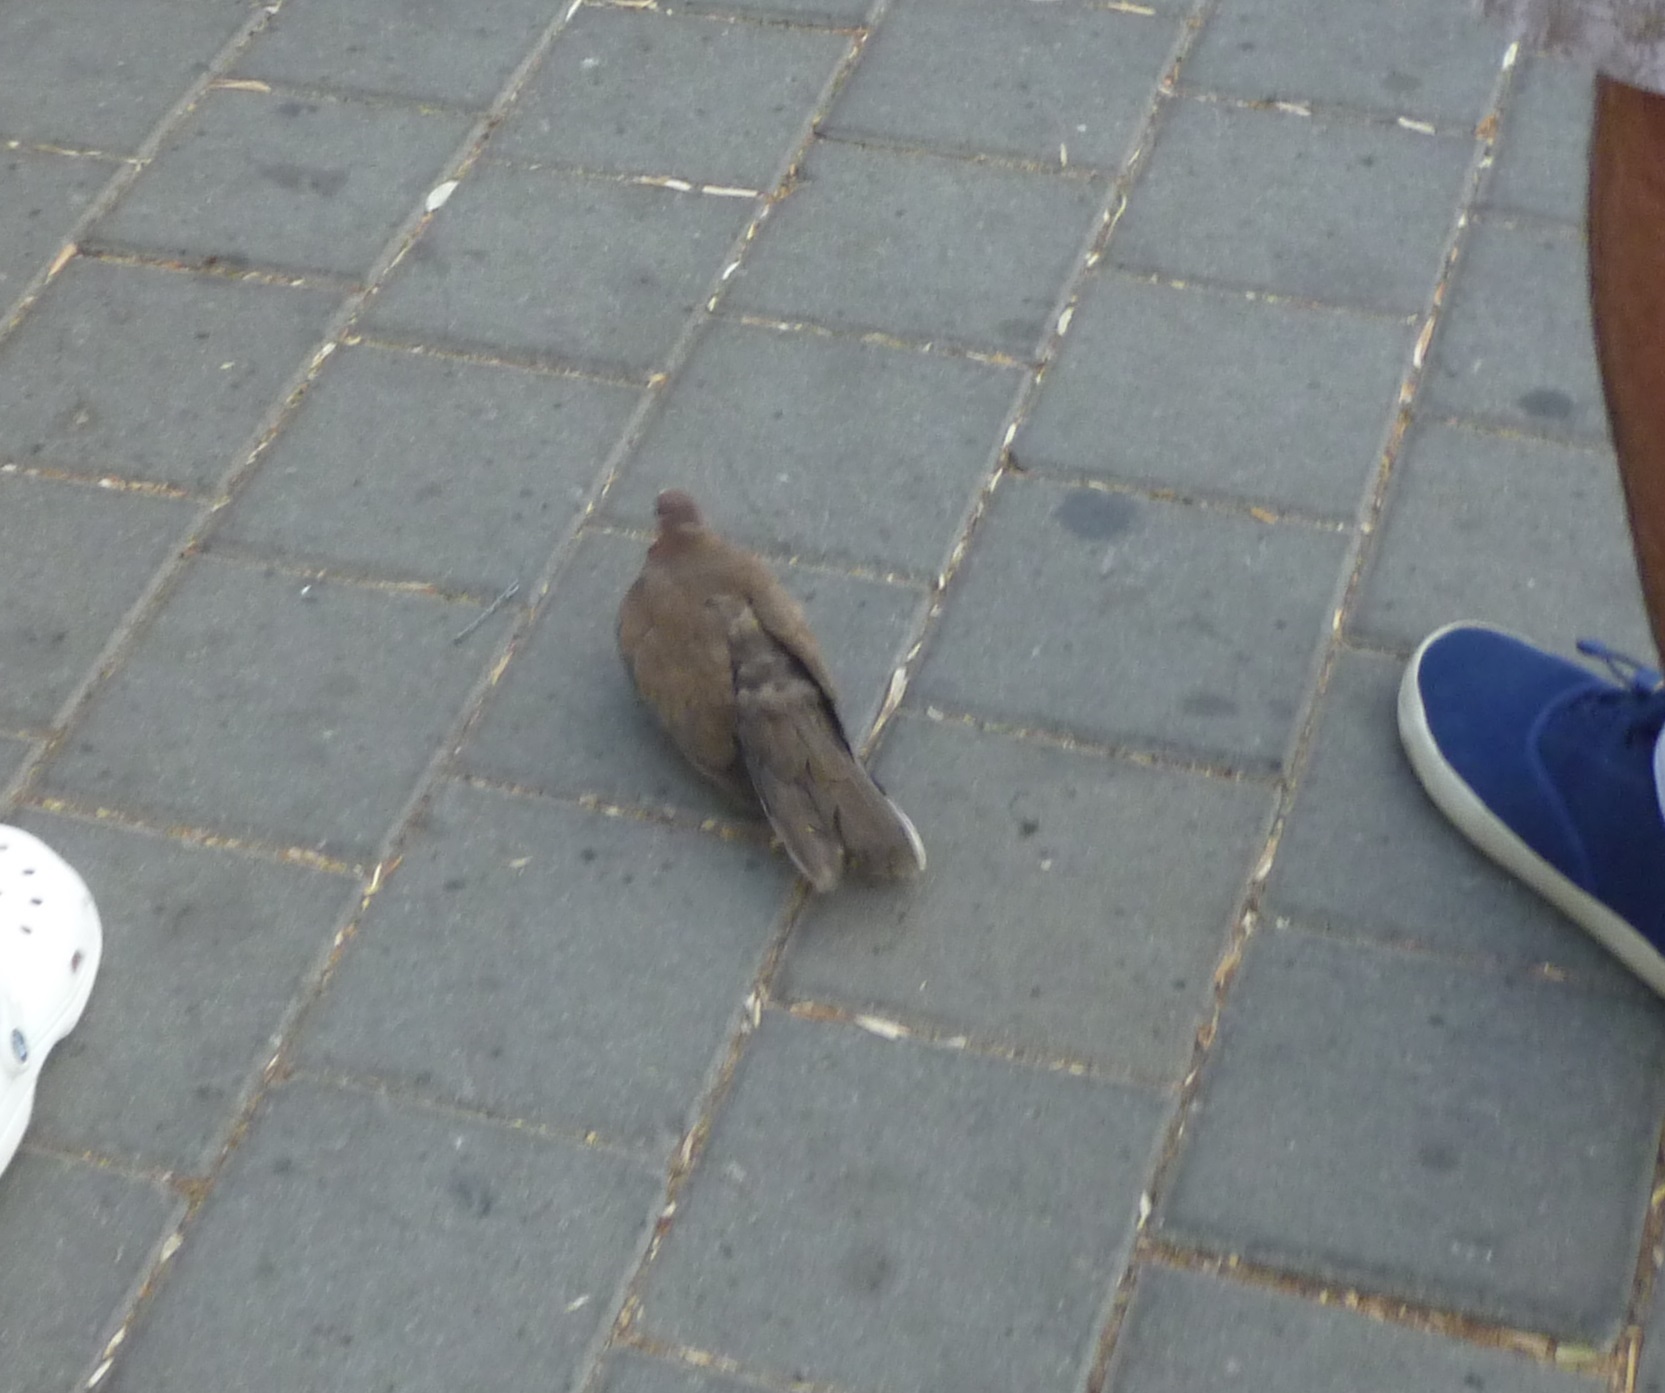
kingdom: Animalia
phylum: Chordata
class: Aves
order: Columbiformes
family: Columbidae
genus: Spilopelia
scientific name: Spilopelia senegalensis
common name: Laughing dove
